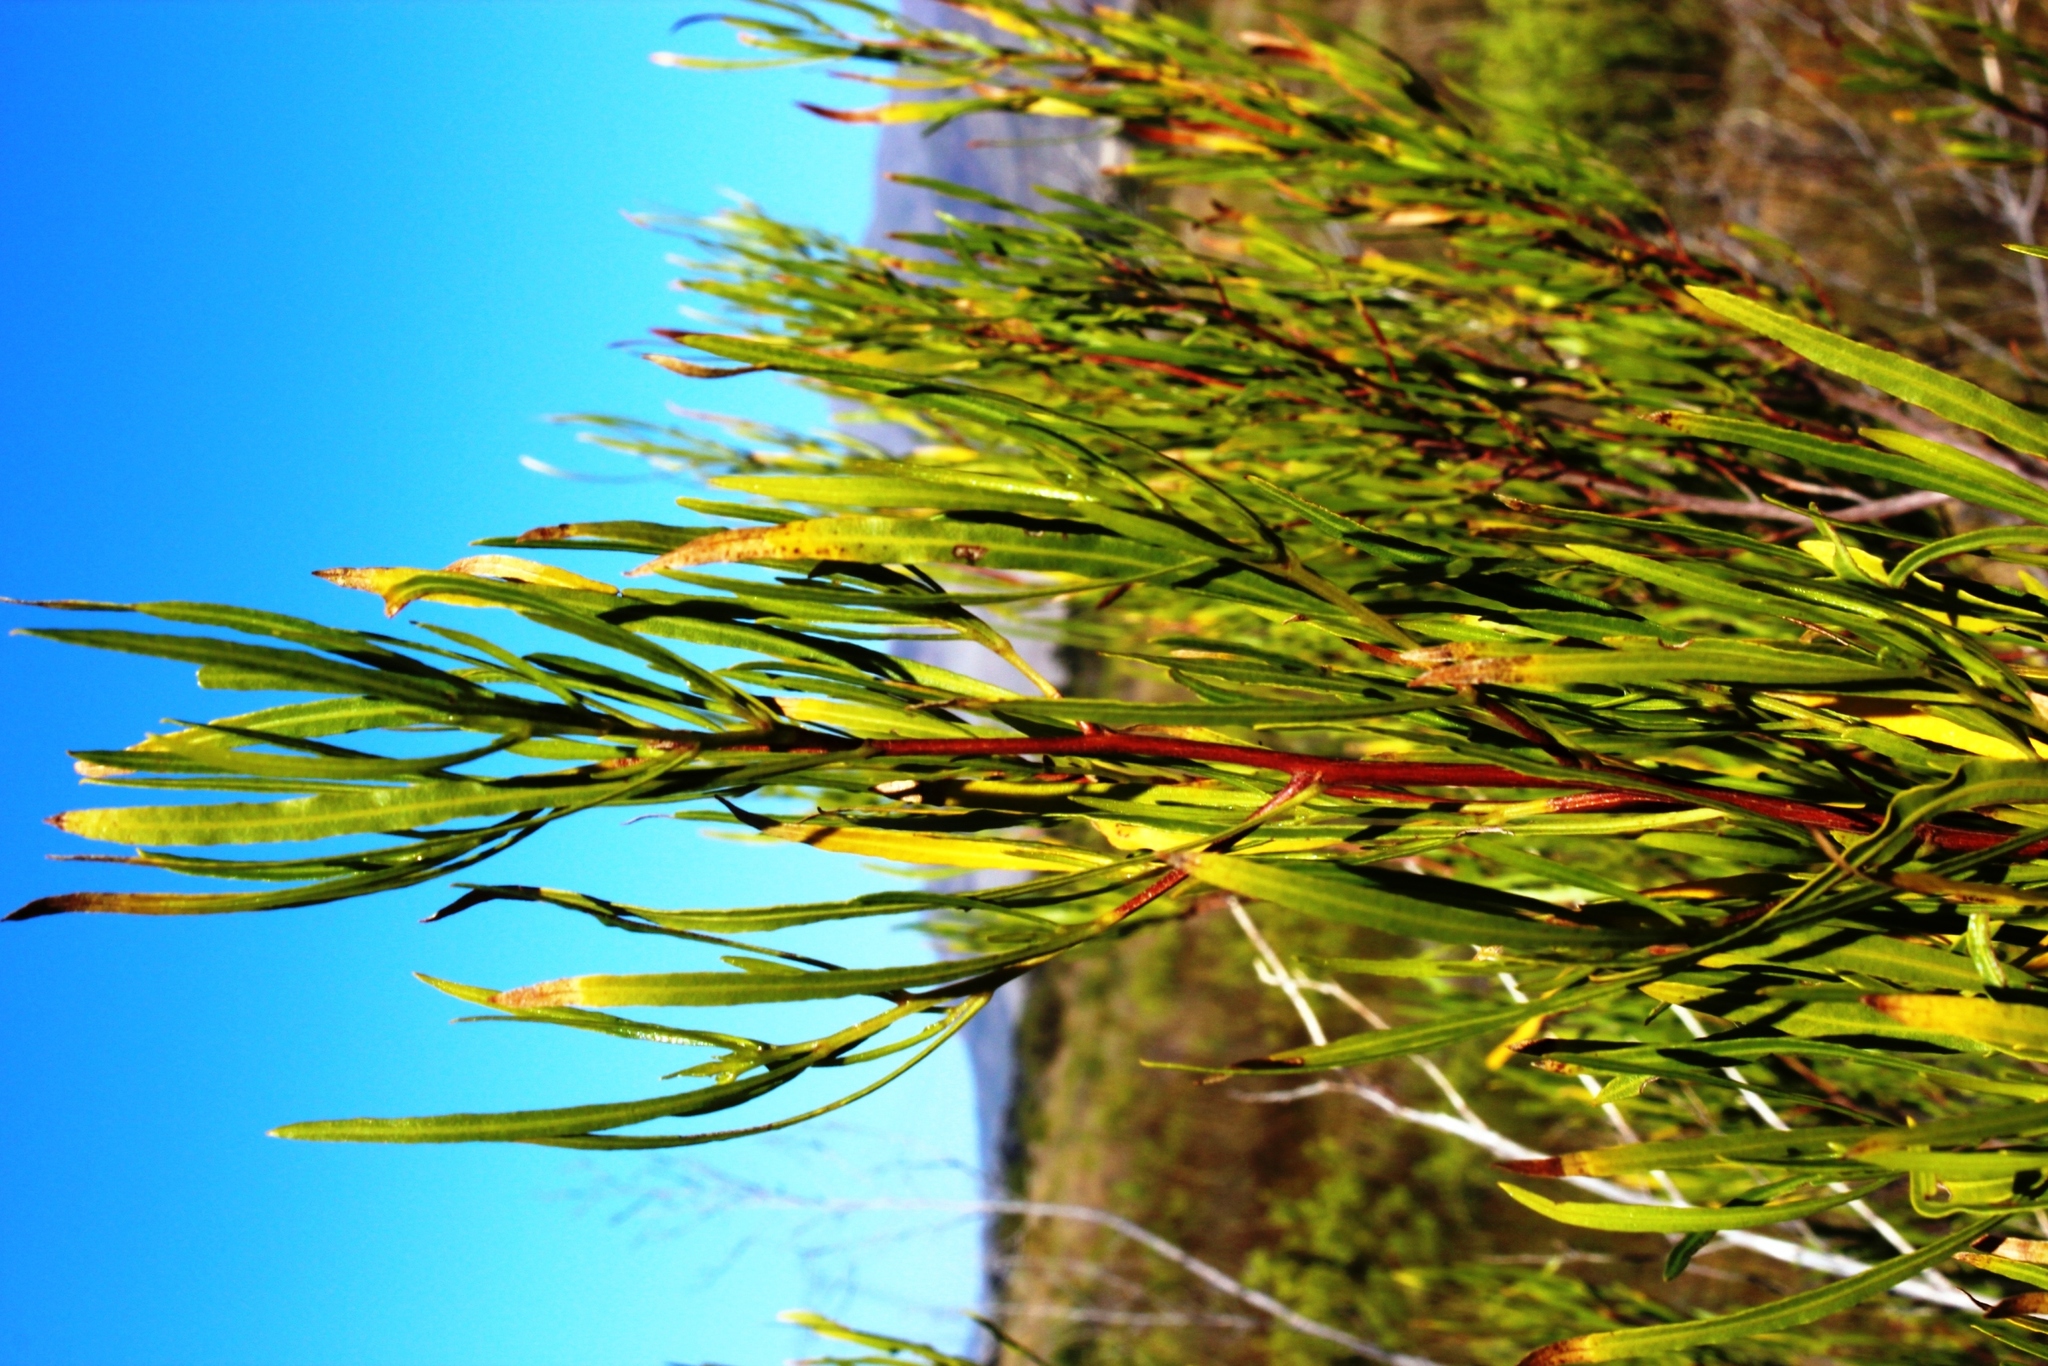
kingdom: Plantae
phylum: Tracheophyta
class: Magnoliopsida
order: Sapindales
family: Sapindaceae
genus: Dodonaea
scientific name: Dodonaea viscosa
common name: Hopbush
